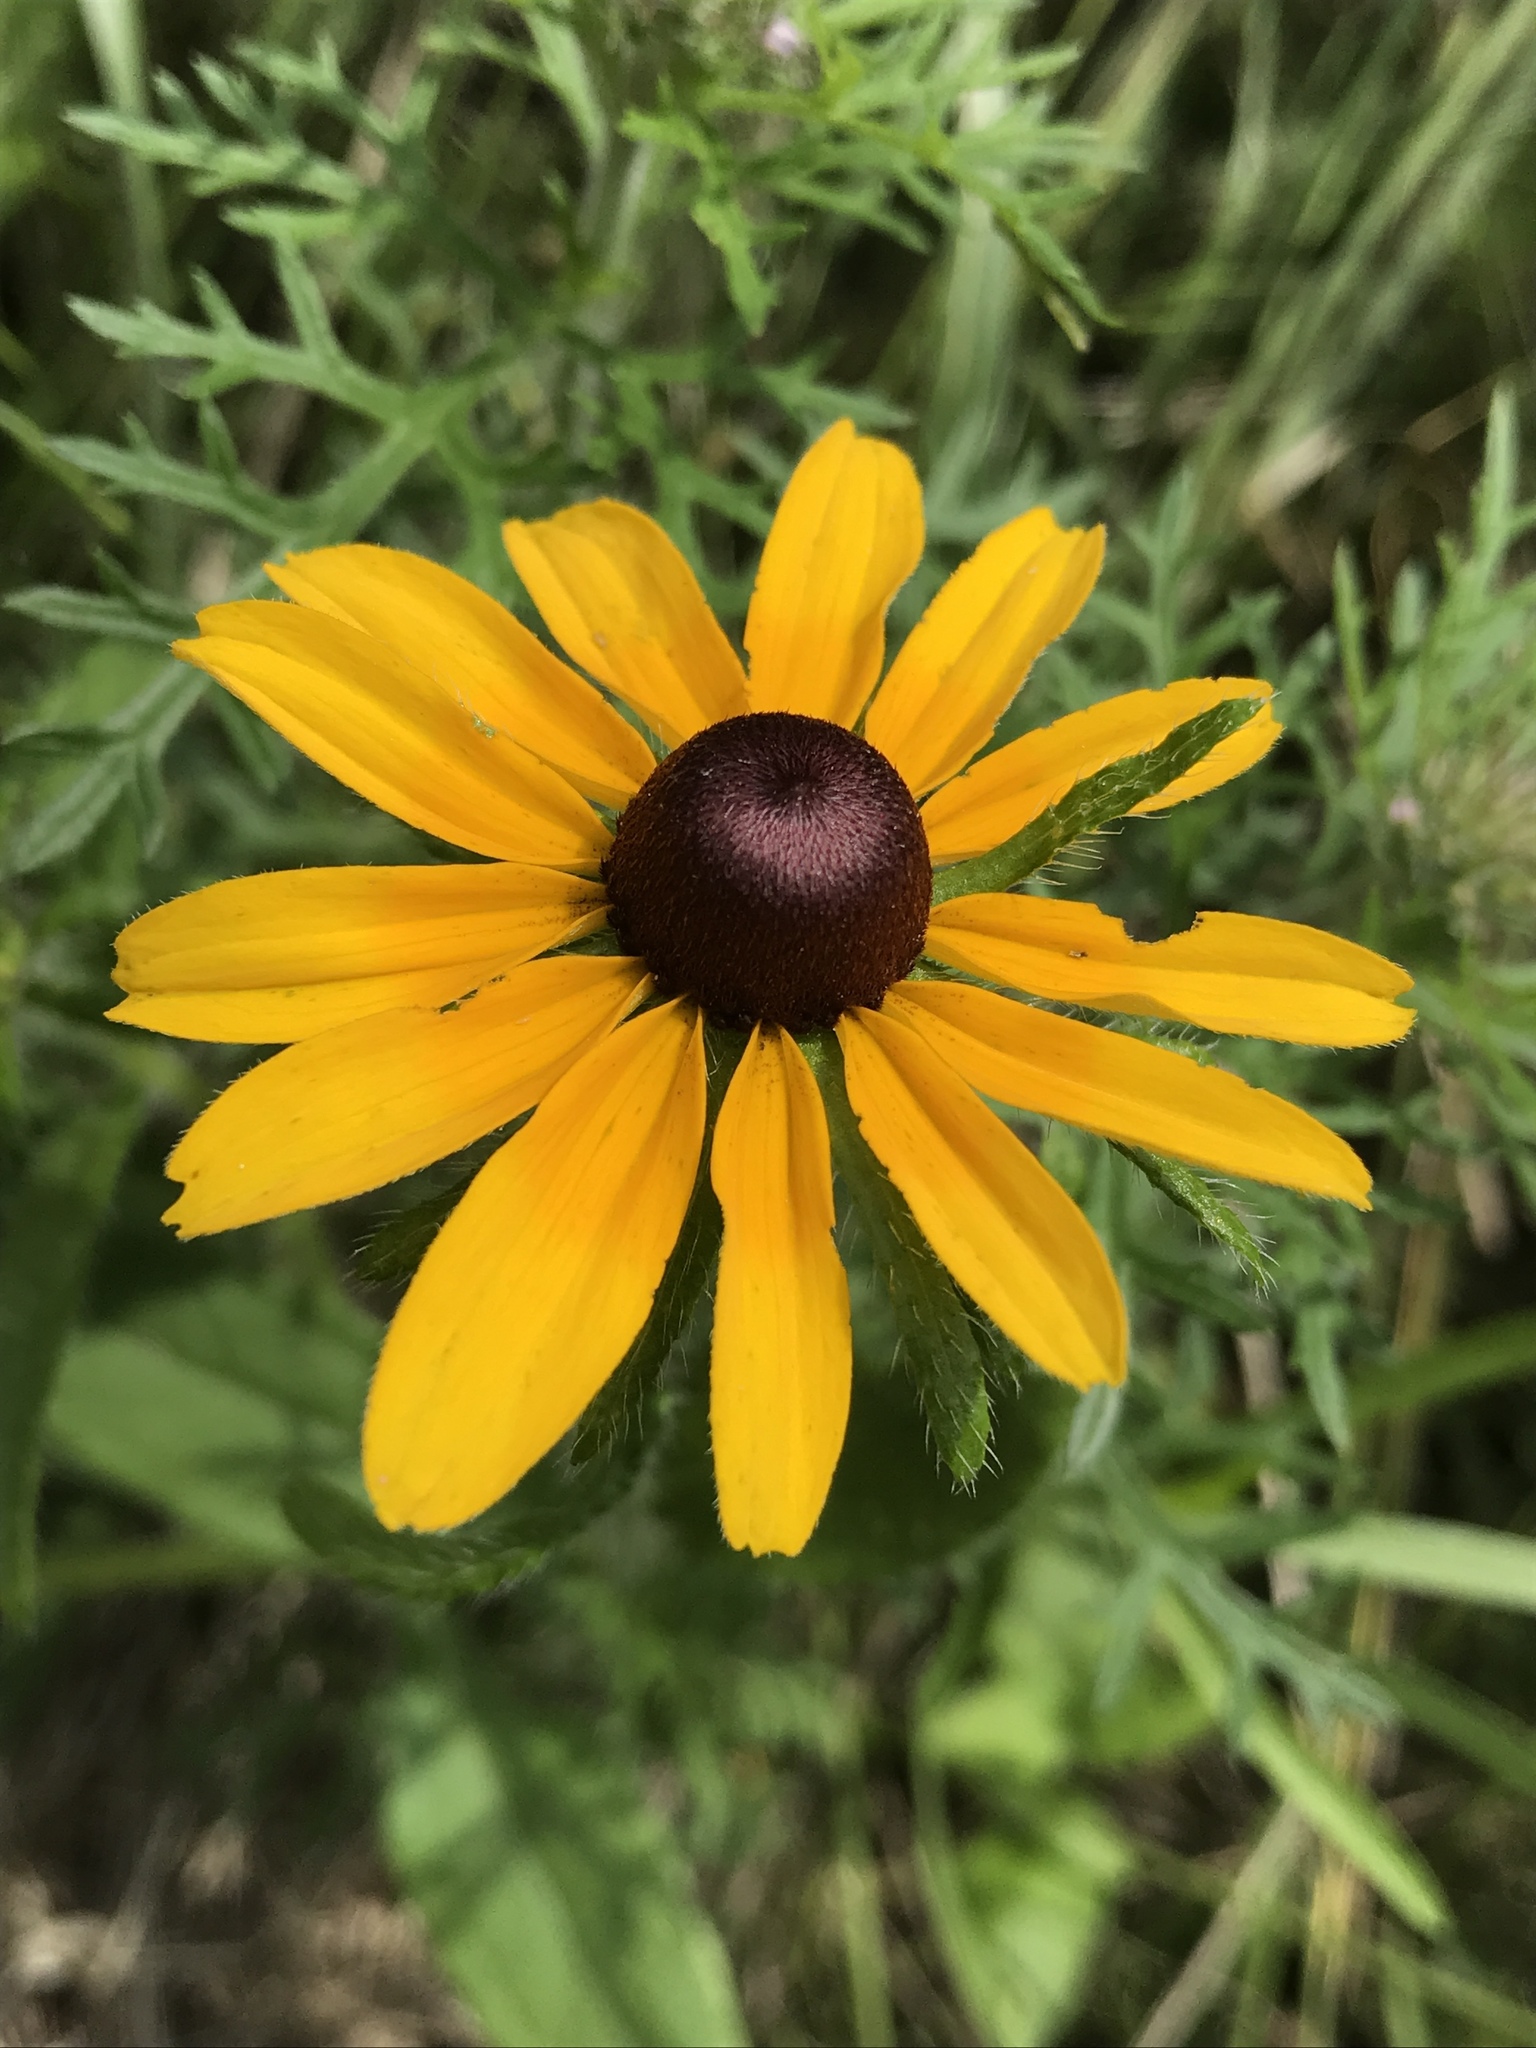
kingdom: Plantae
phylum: Tracheophyta
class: Magnoliopsida
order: Asterales
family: Asteraceae
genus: Rudbeckia
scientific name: Rudbeckia hirta
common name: Black-eyed-susan
